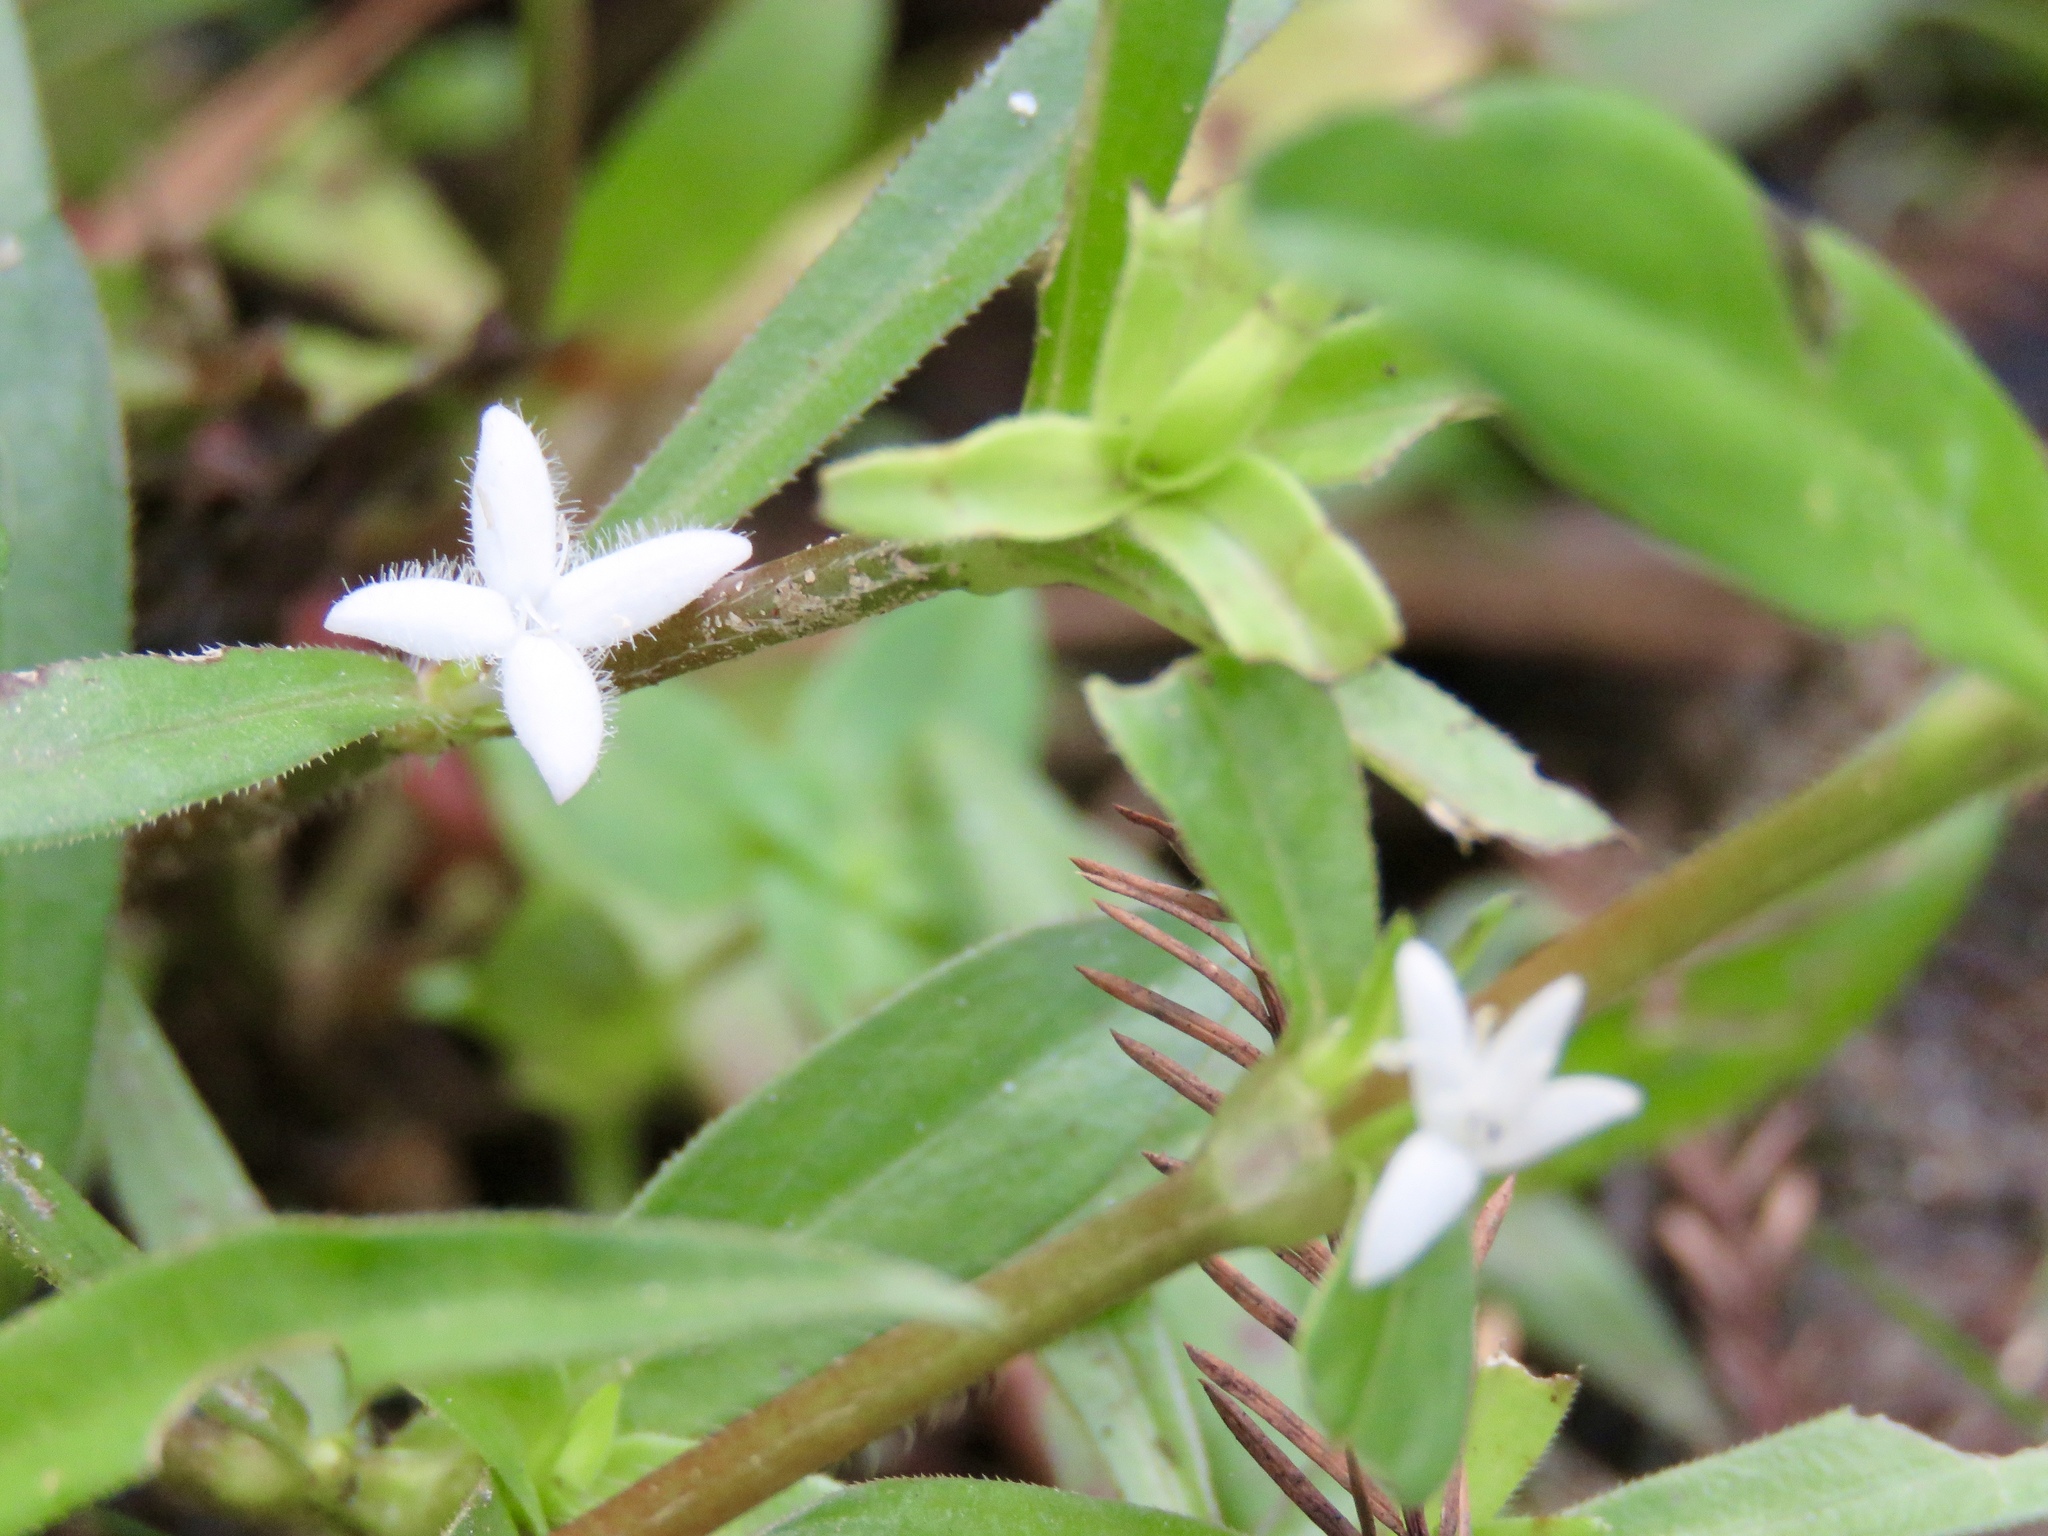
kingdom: Plantae
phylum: Tracheophyta
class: Magnoliopsida
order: Gentianales
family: Rubiaceae
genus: Diodia
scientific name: Diodia virginiana
